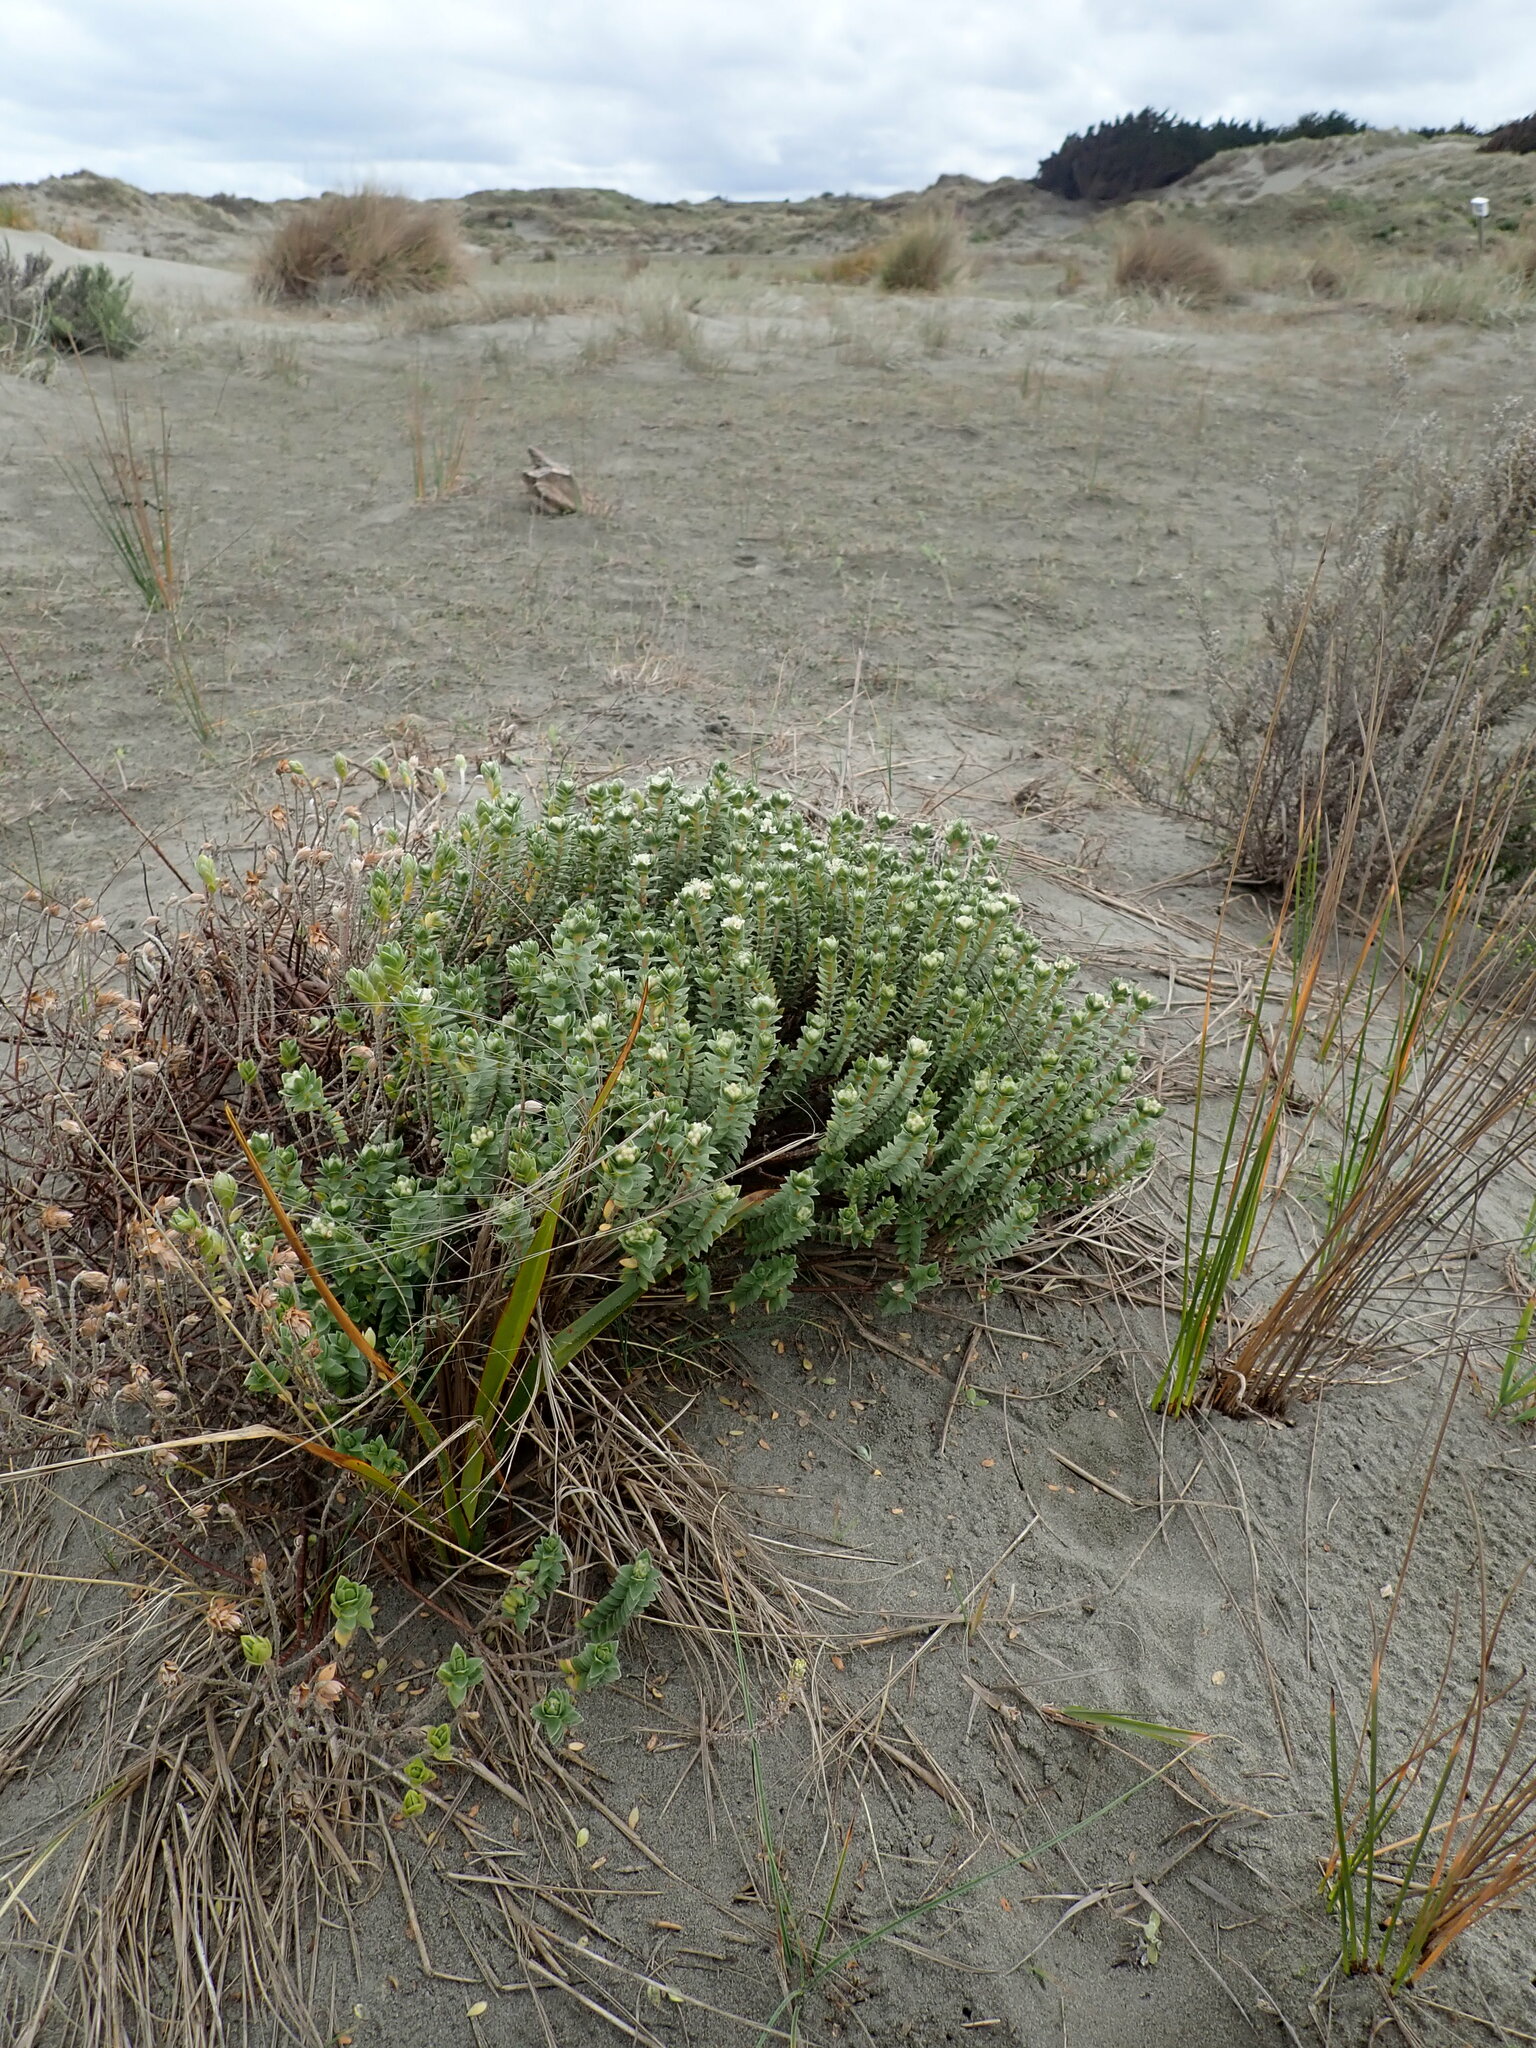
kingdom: Plantae
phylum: Tracheophyta
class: Magnoliopsida
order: Malvales
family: Thymelaeaceae
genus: Pimelea
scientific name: Pimelea villosa
